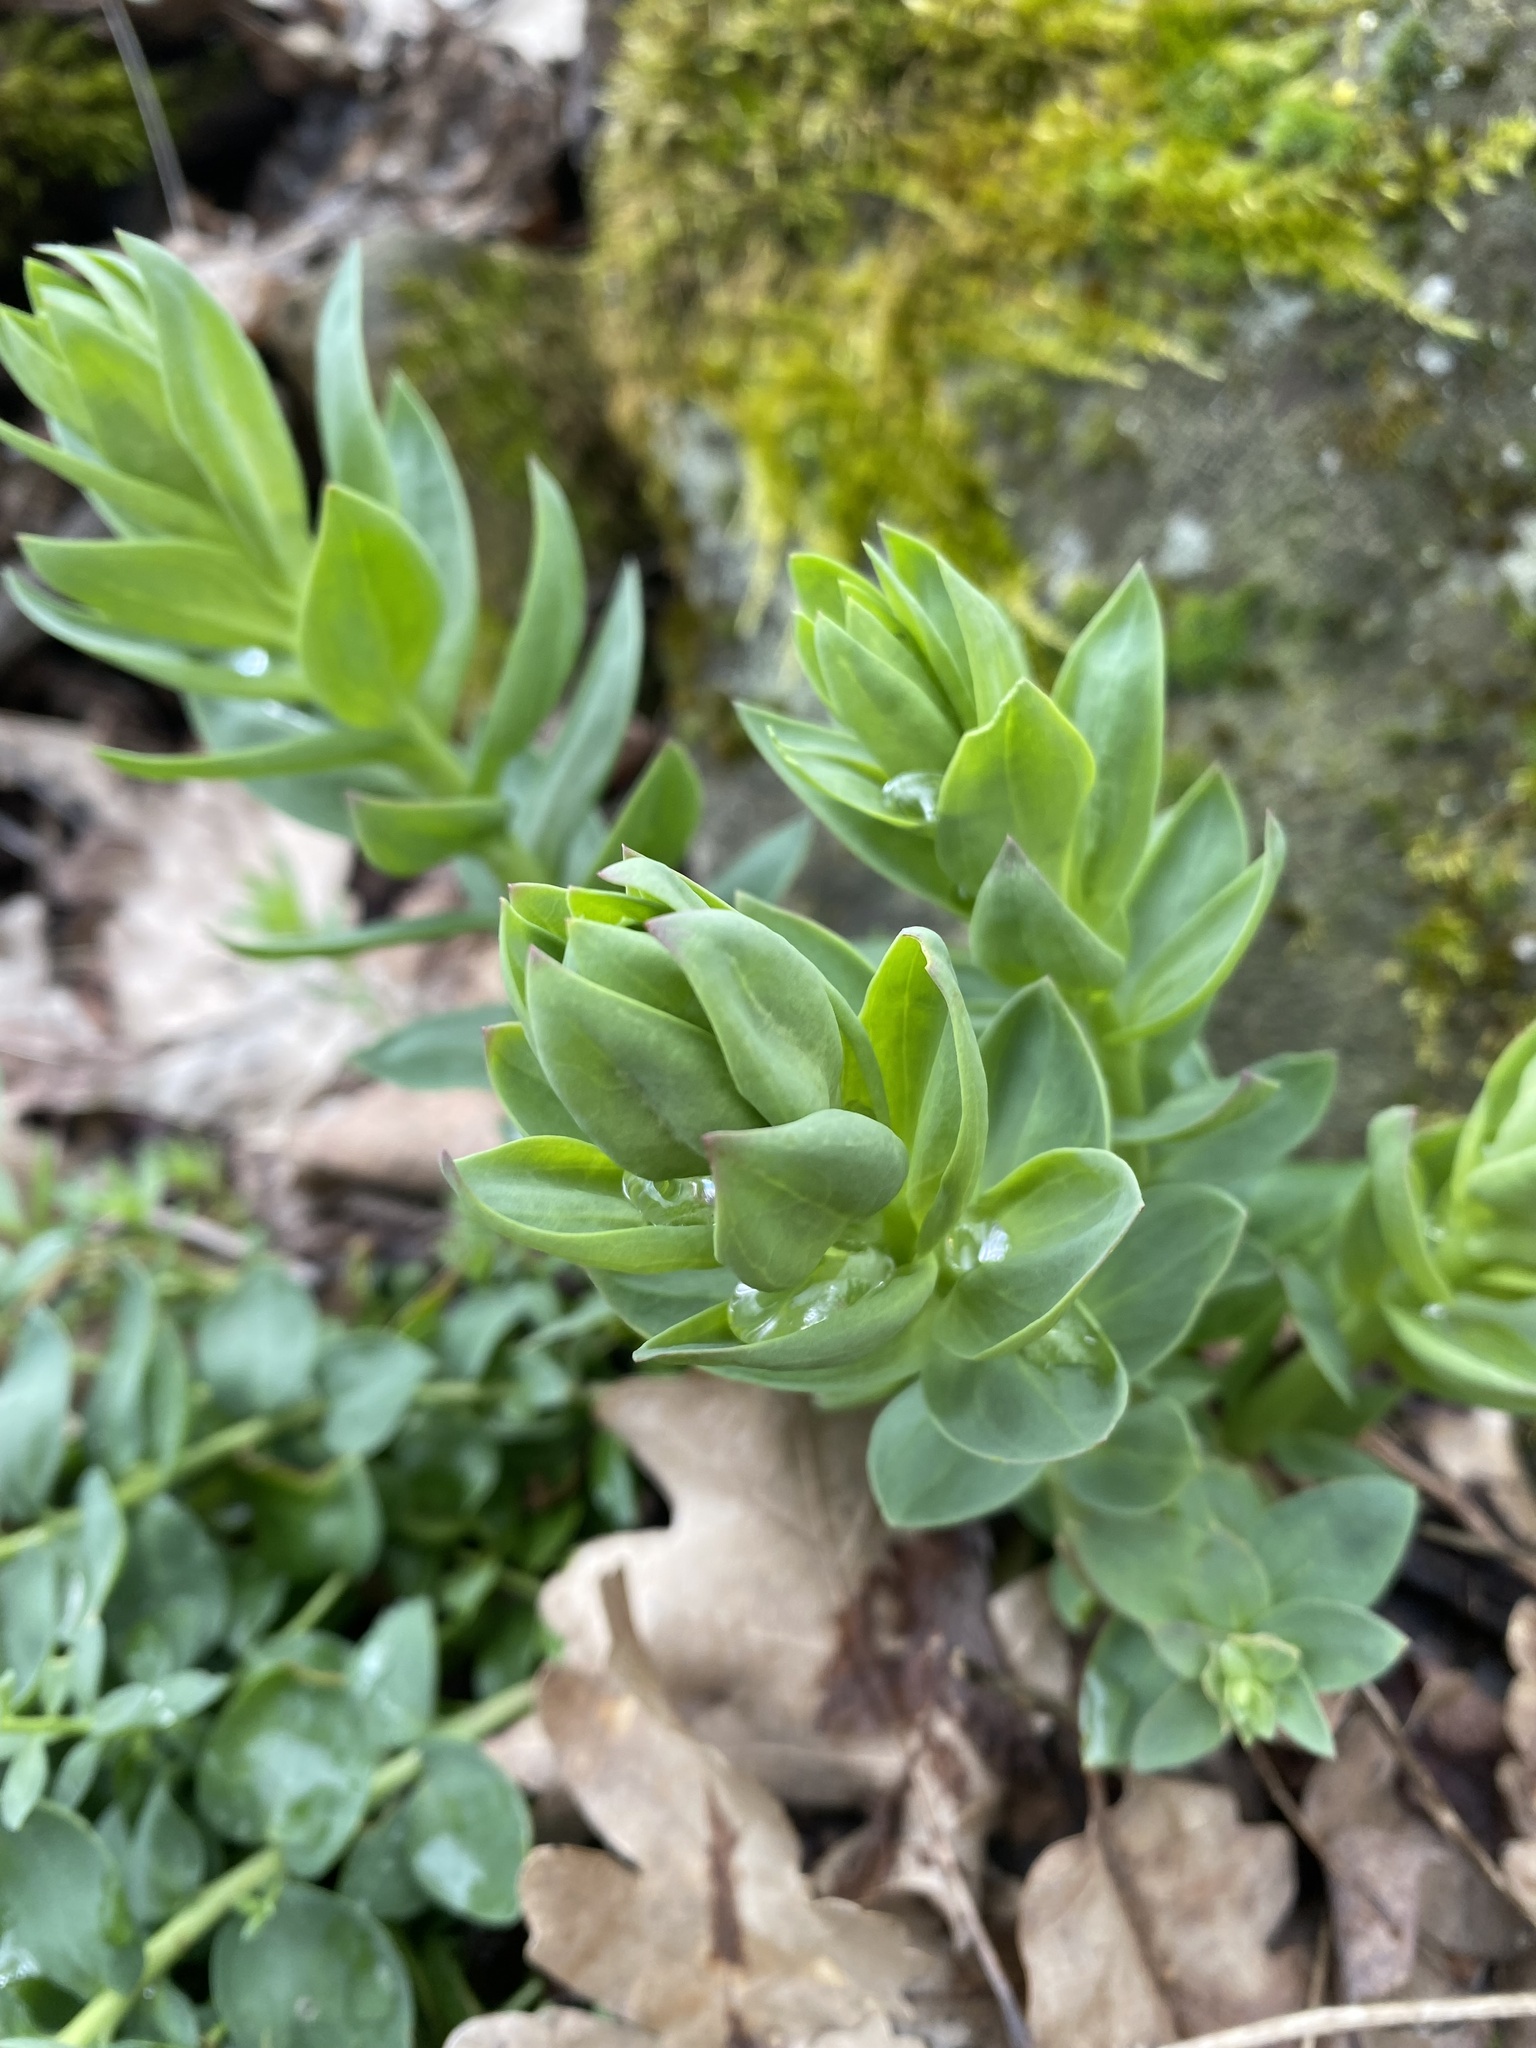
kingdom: Plantae
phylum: Tracheophyta
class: Magnoliopsida
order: Lamiales
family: Plantaginaceae
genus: Linaria
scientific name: Linaria genistifolia
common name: Broomleaf toadflax
